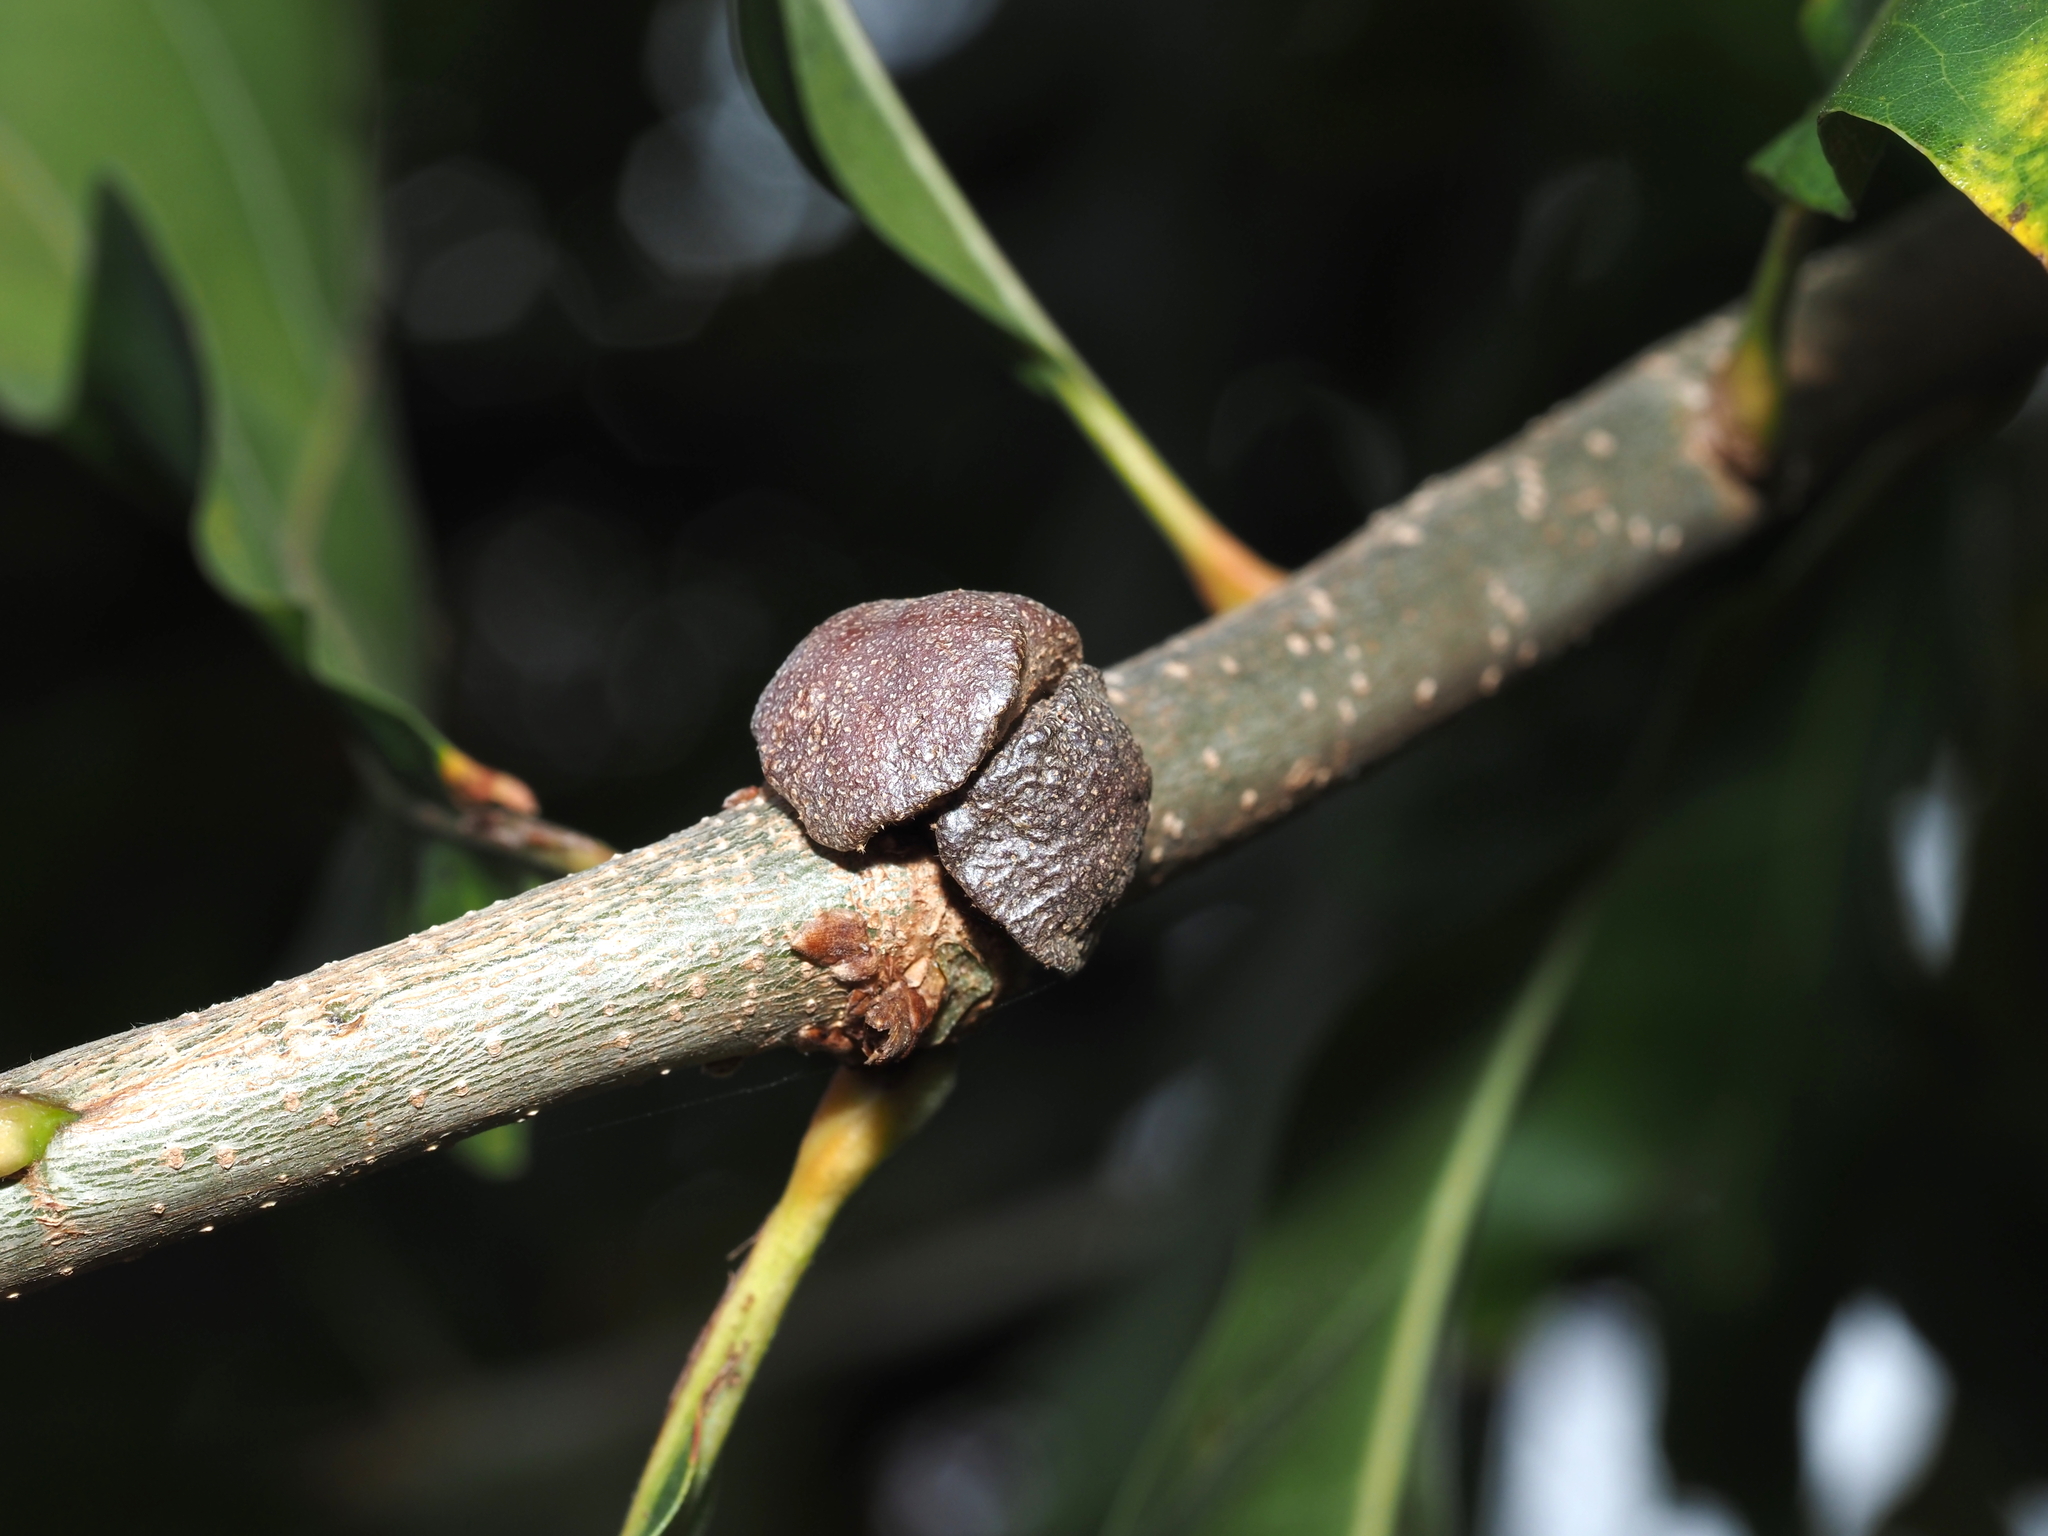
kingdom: Animalia
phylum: Arthropoda
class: Insecta
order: Hymenoptera
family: Cynipidae
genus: Andricus
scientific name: Andricus
